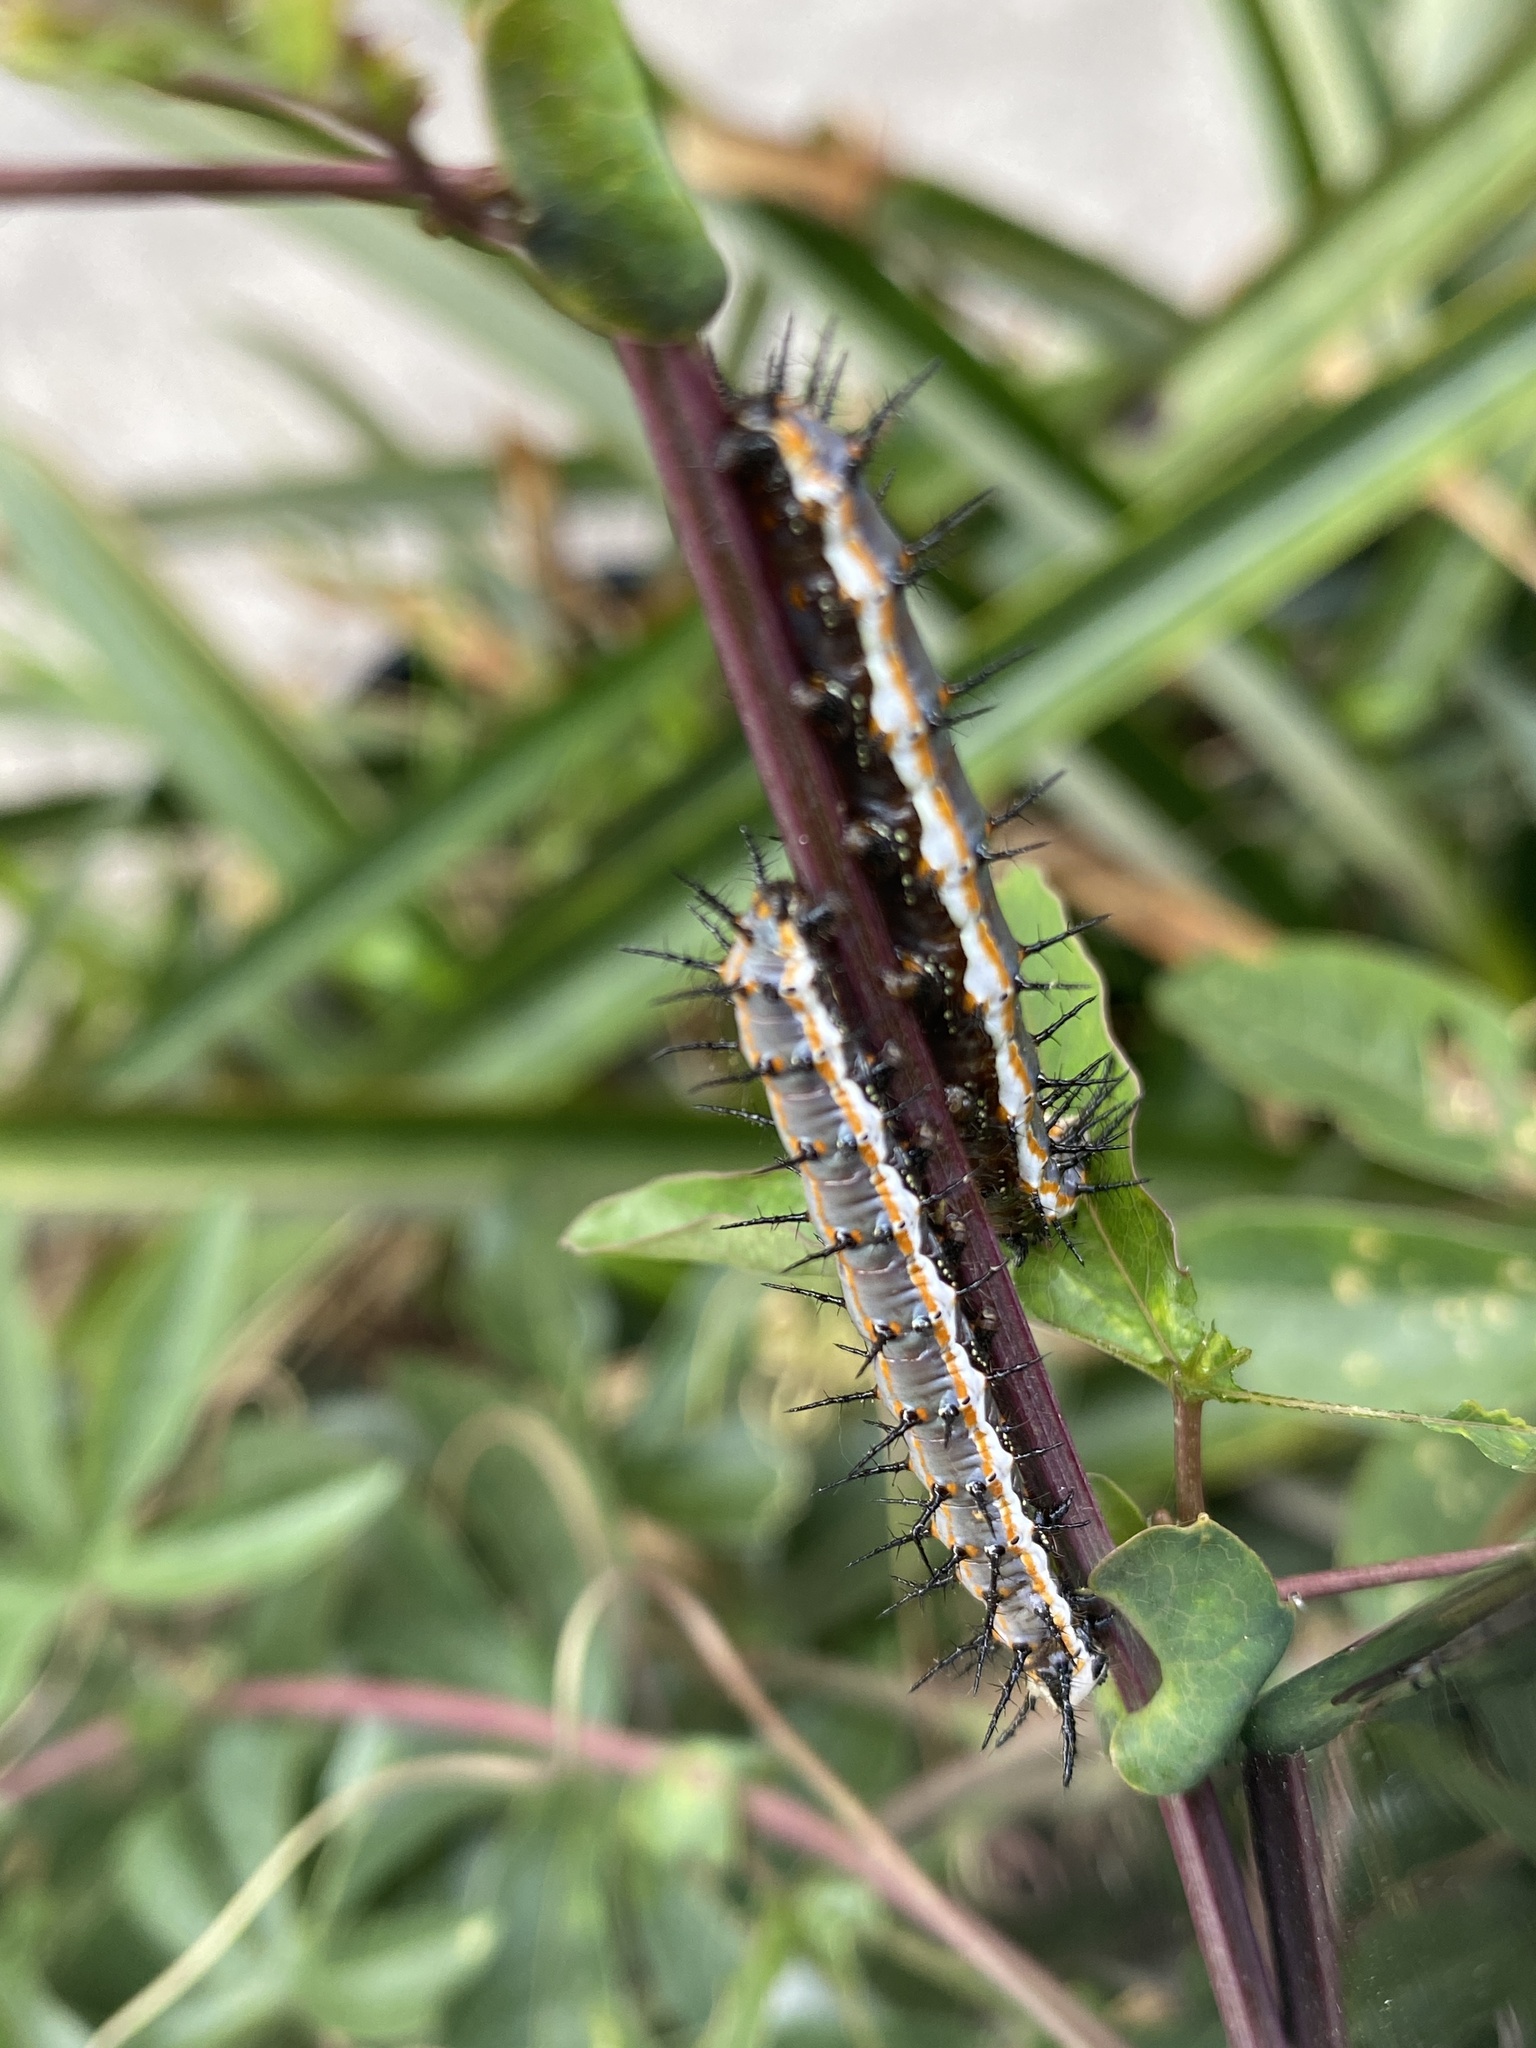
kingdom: Animalia
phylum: Arthropoda
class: Insecta
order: Lepidoptera
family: Nymphalidae
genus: Dione
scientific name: Dione vanillae
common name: Gulf fritillary
